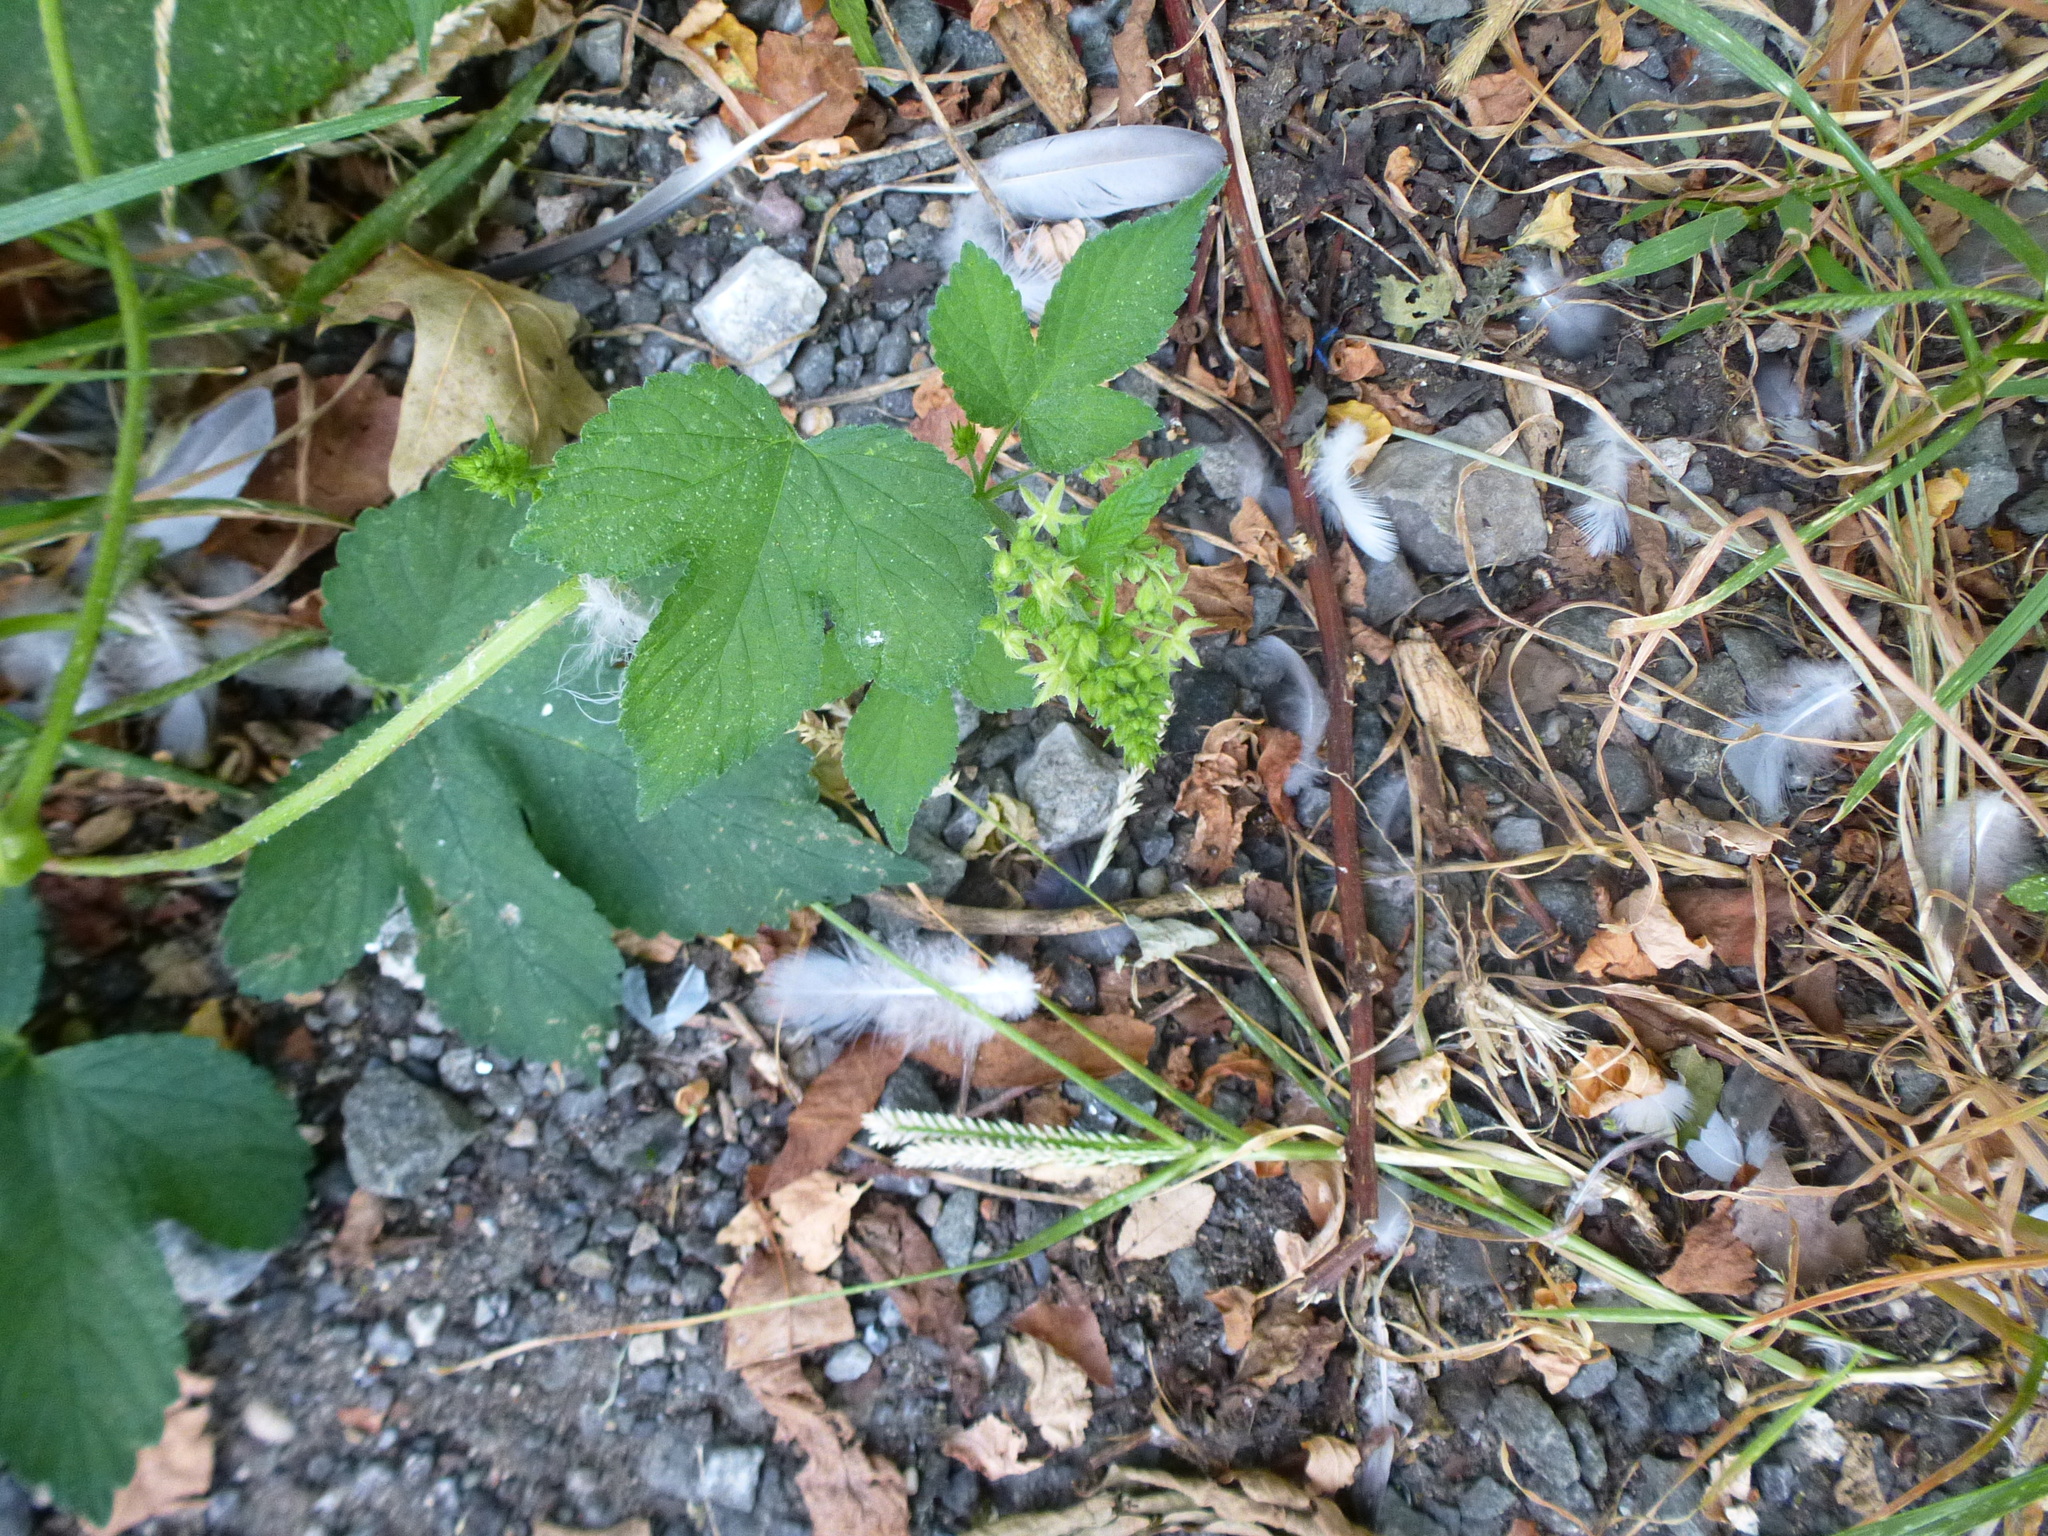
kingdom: Plantae
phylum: Tracheophyta
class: Magnoliopsida
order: Rosales
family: Cannabaceae
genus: Humulus
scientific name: Humulus scandens
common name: Japanese hop
